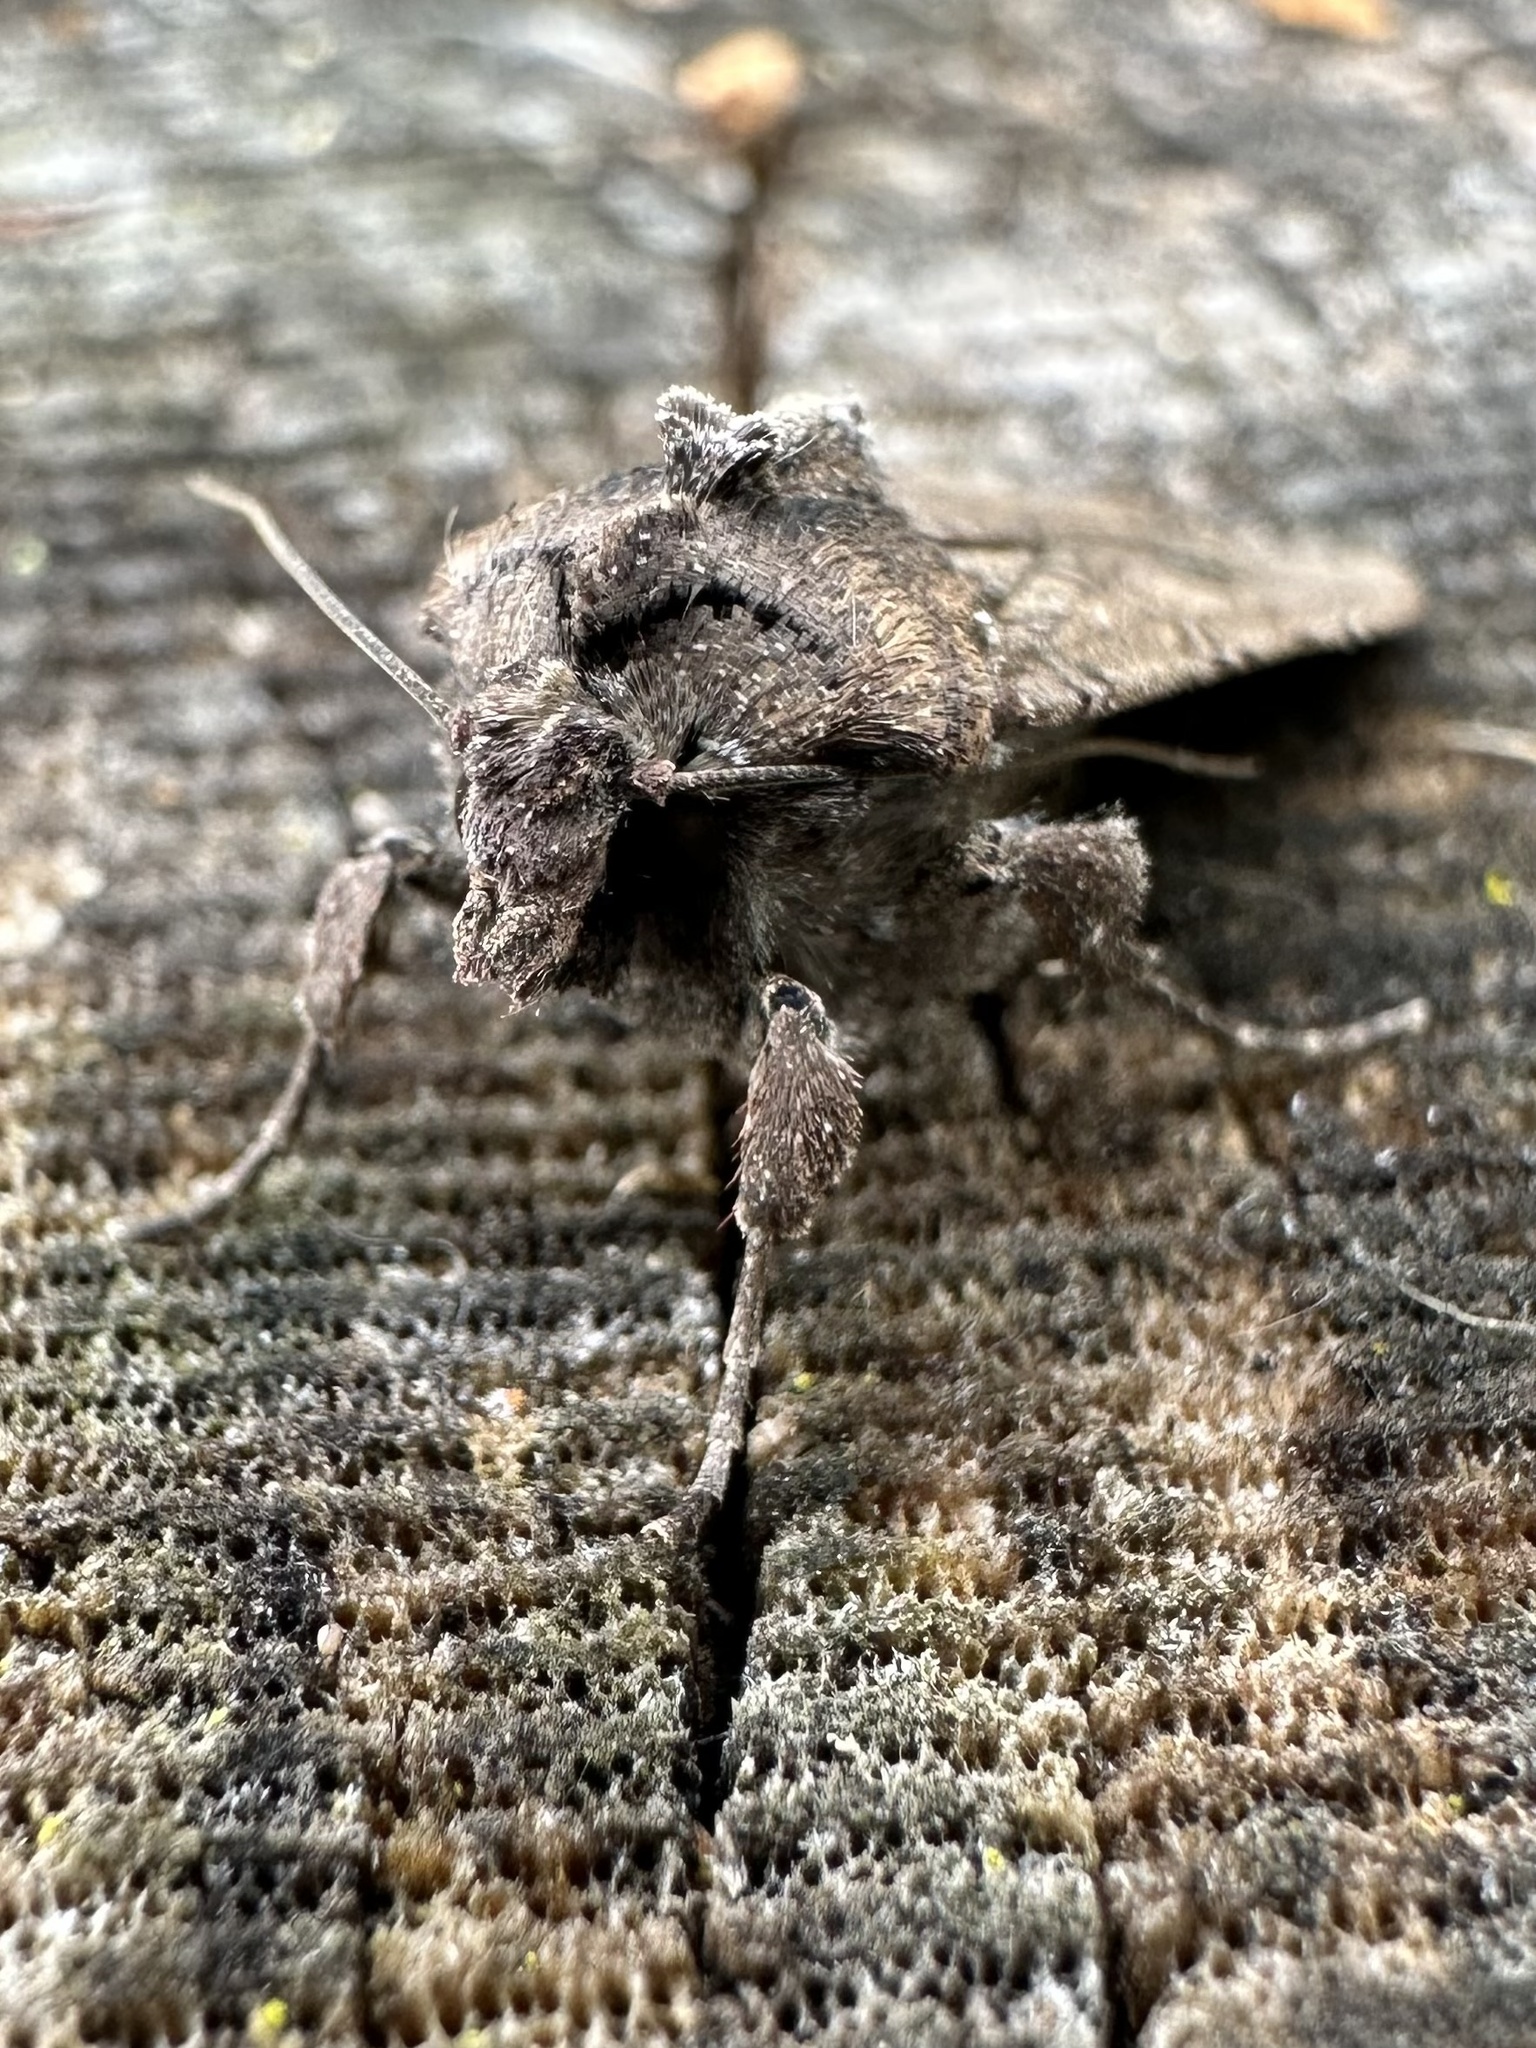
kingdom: Animalia
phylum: Arthropoda
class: Insecta
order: Lepidoptera
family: Noctuidae
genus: Peridroma
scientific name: Peridroma saucia
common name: Pearly underwing
